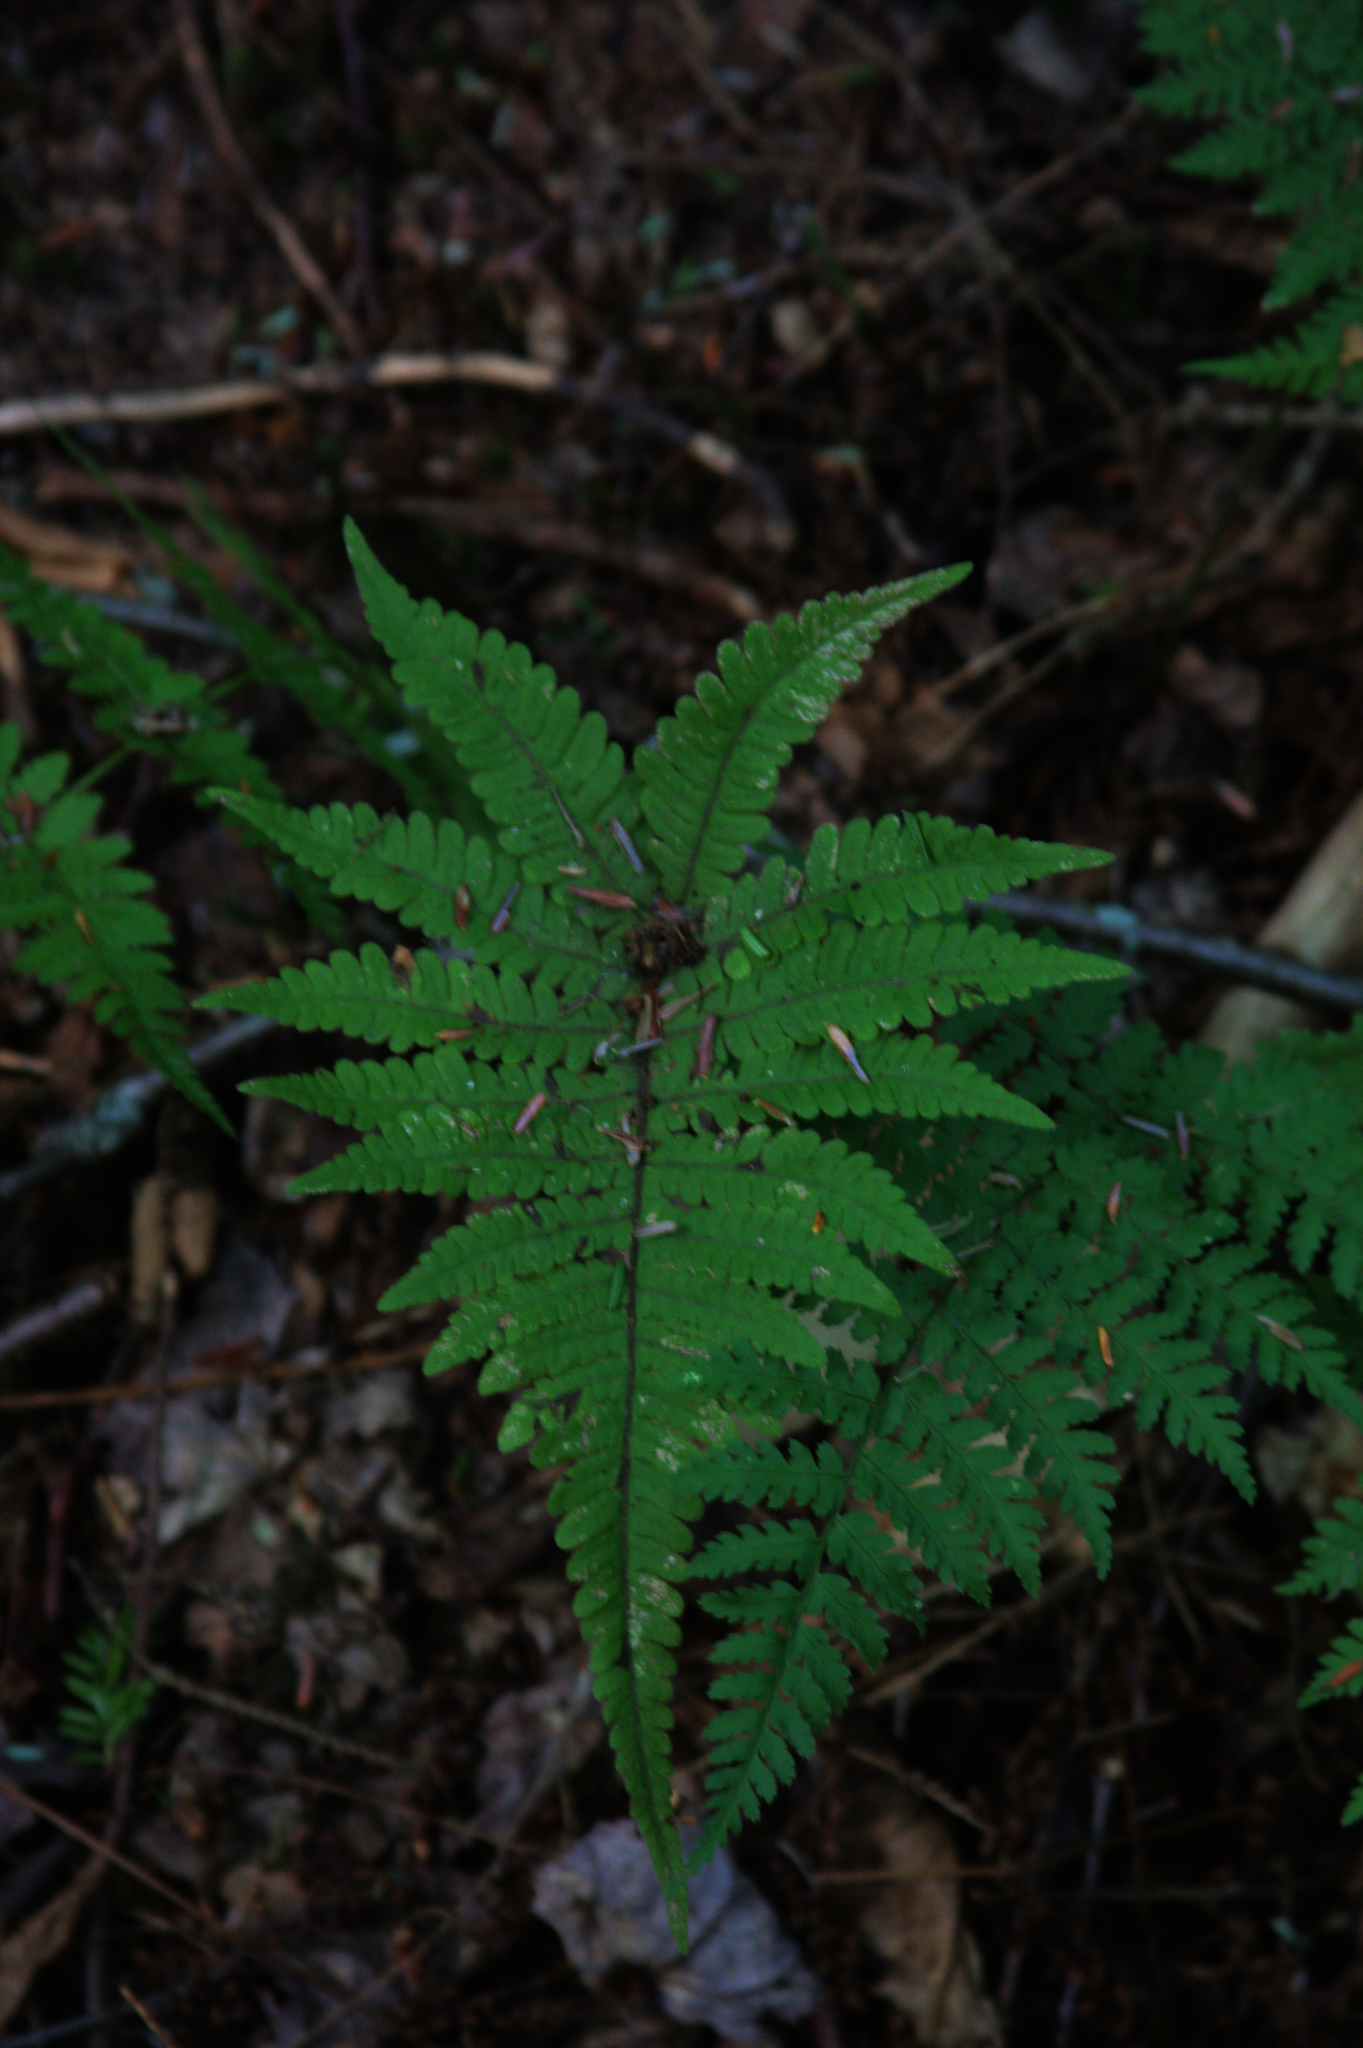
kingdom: Plantae
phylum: Tracheophyta
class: Polypodiopsida
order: Polypodiales
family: Thelypteridaceae
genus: Phegopteris
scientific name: Phegopteris connectilis
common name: Beech fern
